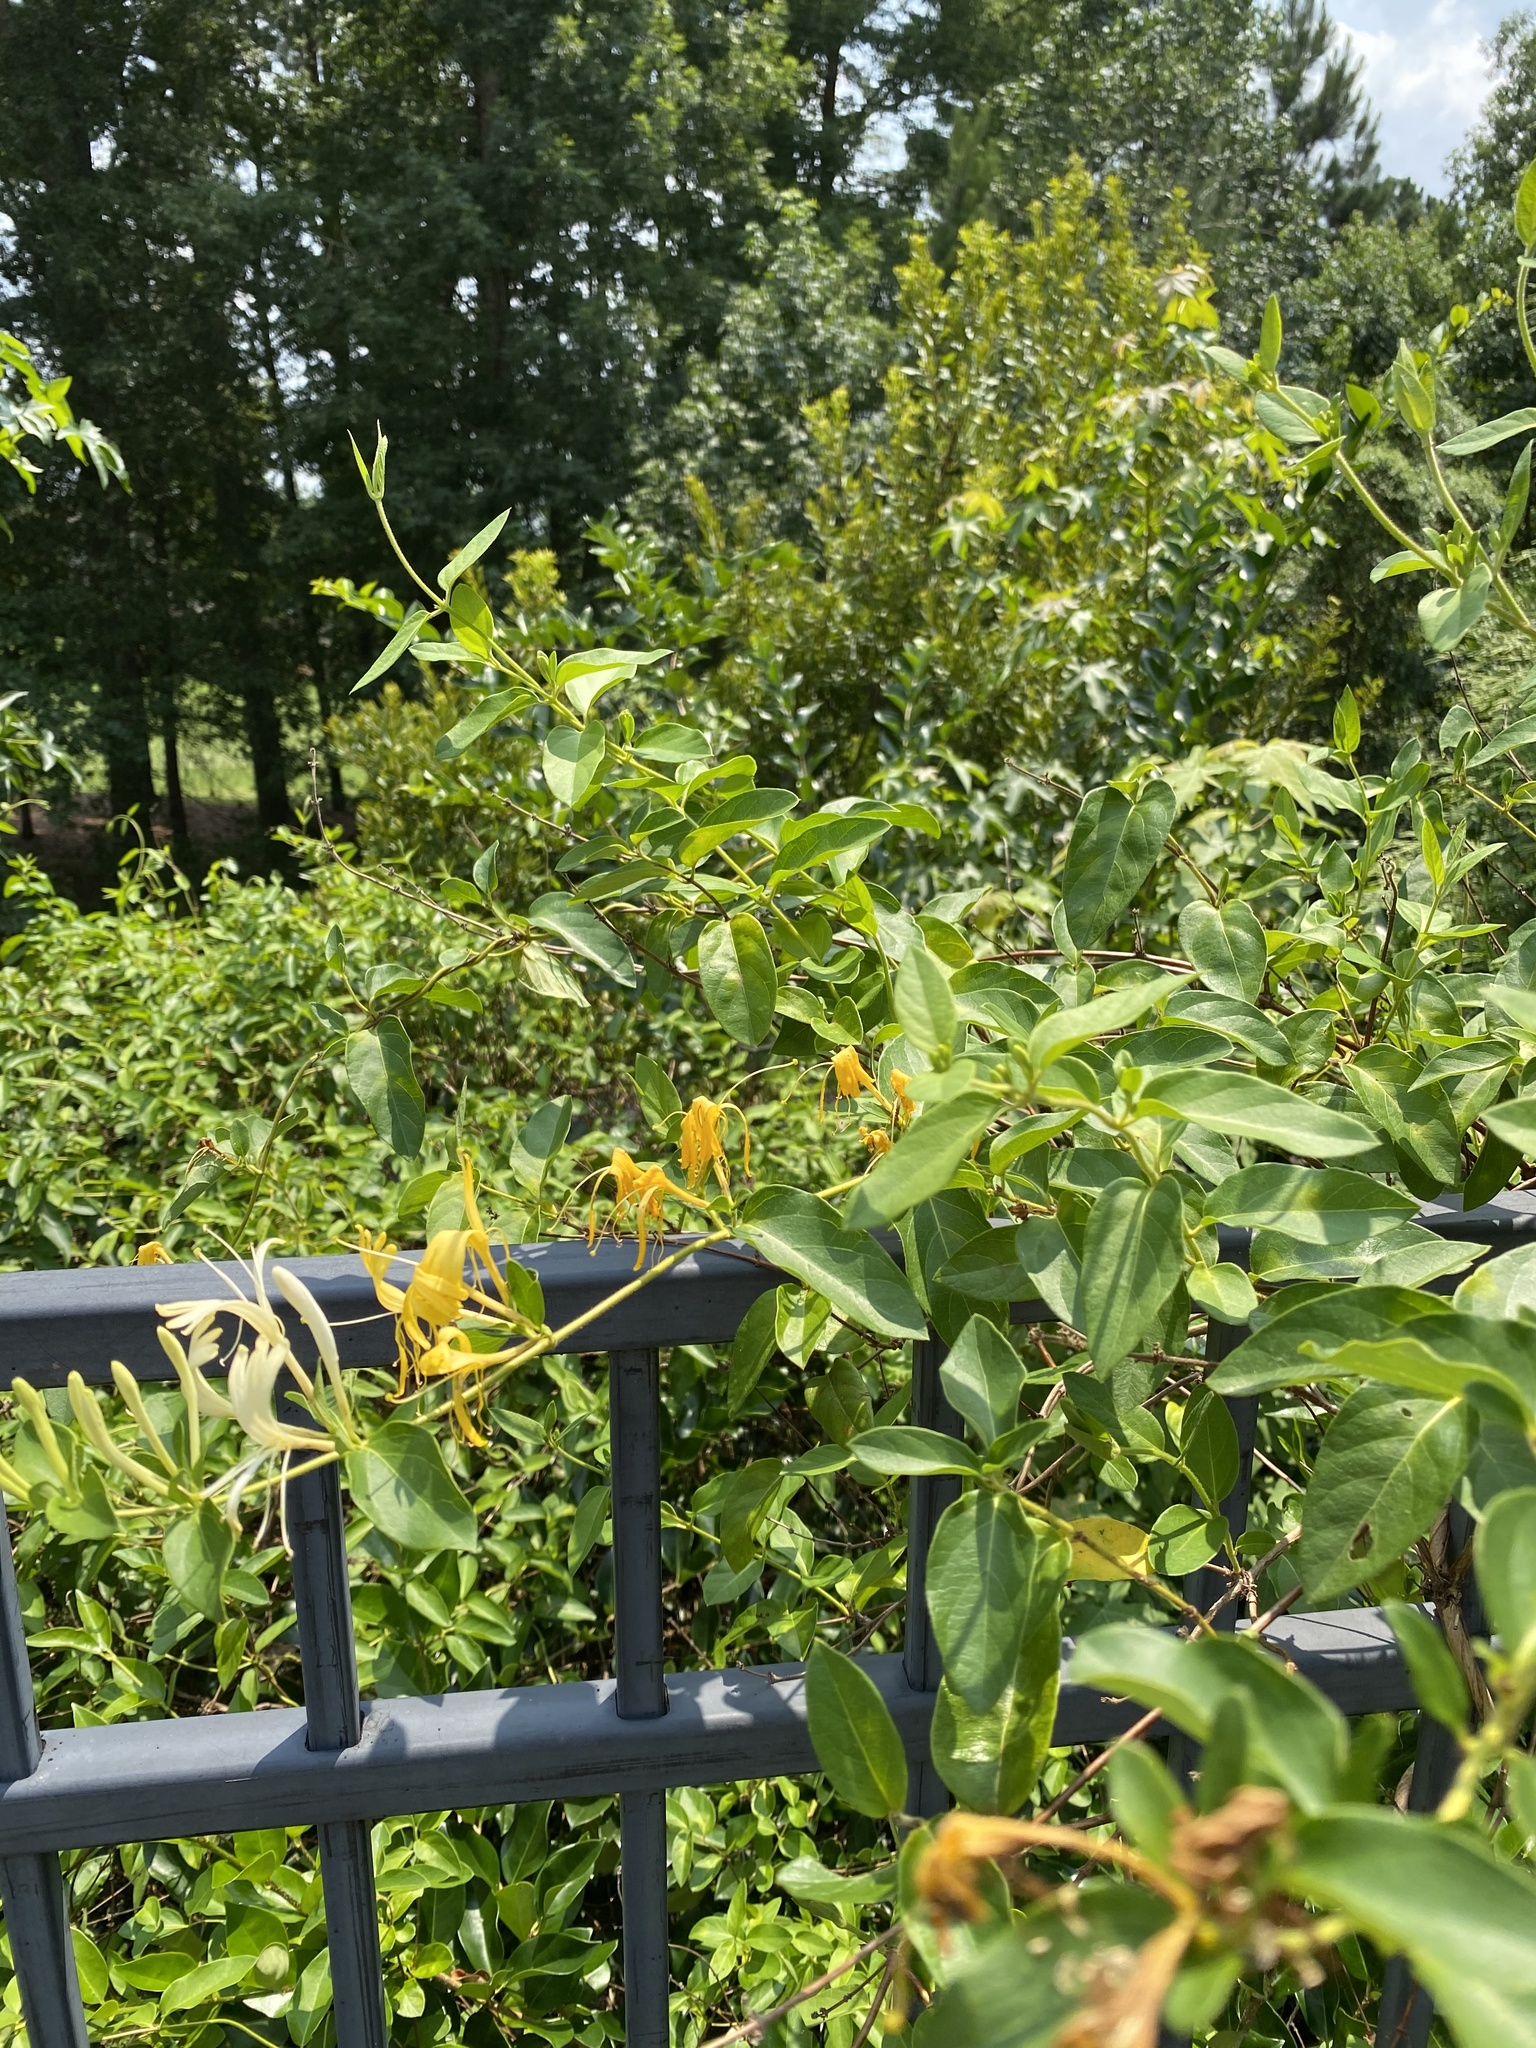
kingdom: Plantae
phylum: Tracheophyta
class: Magnoliopsida
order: Dipsacales
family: Caprifoliaceae
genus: Lonicera
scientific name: Lonicera japonica
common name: Japanese honeysuckle
